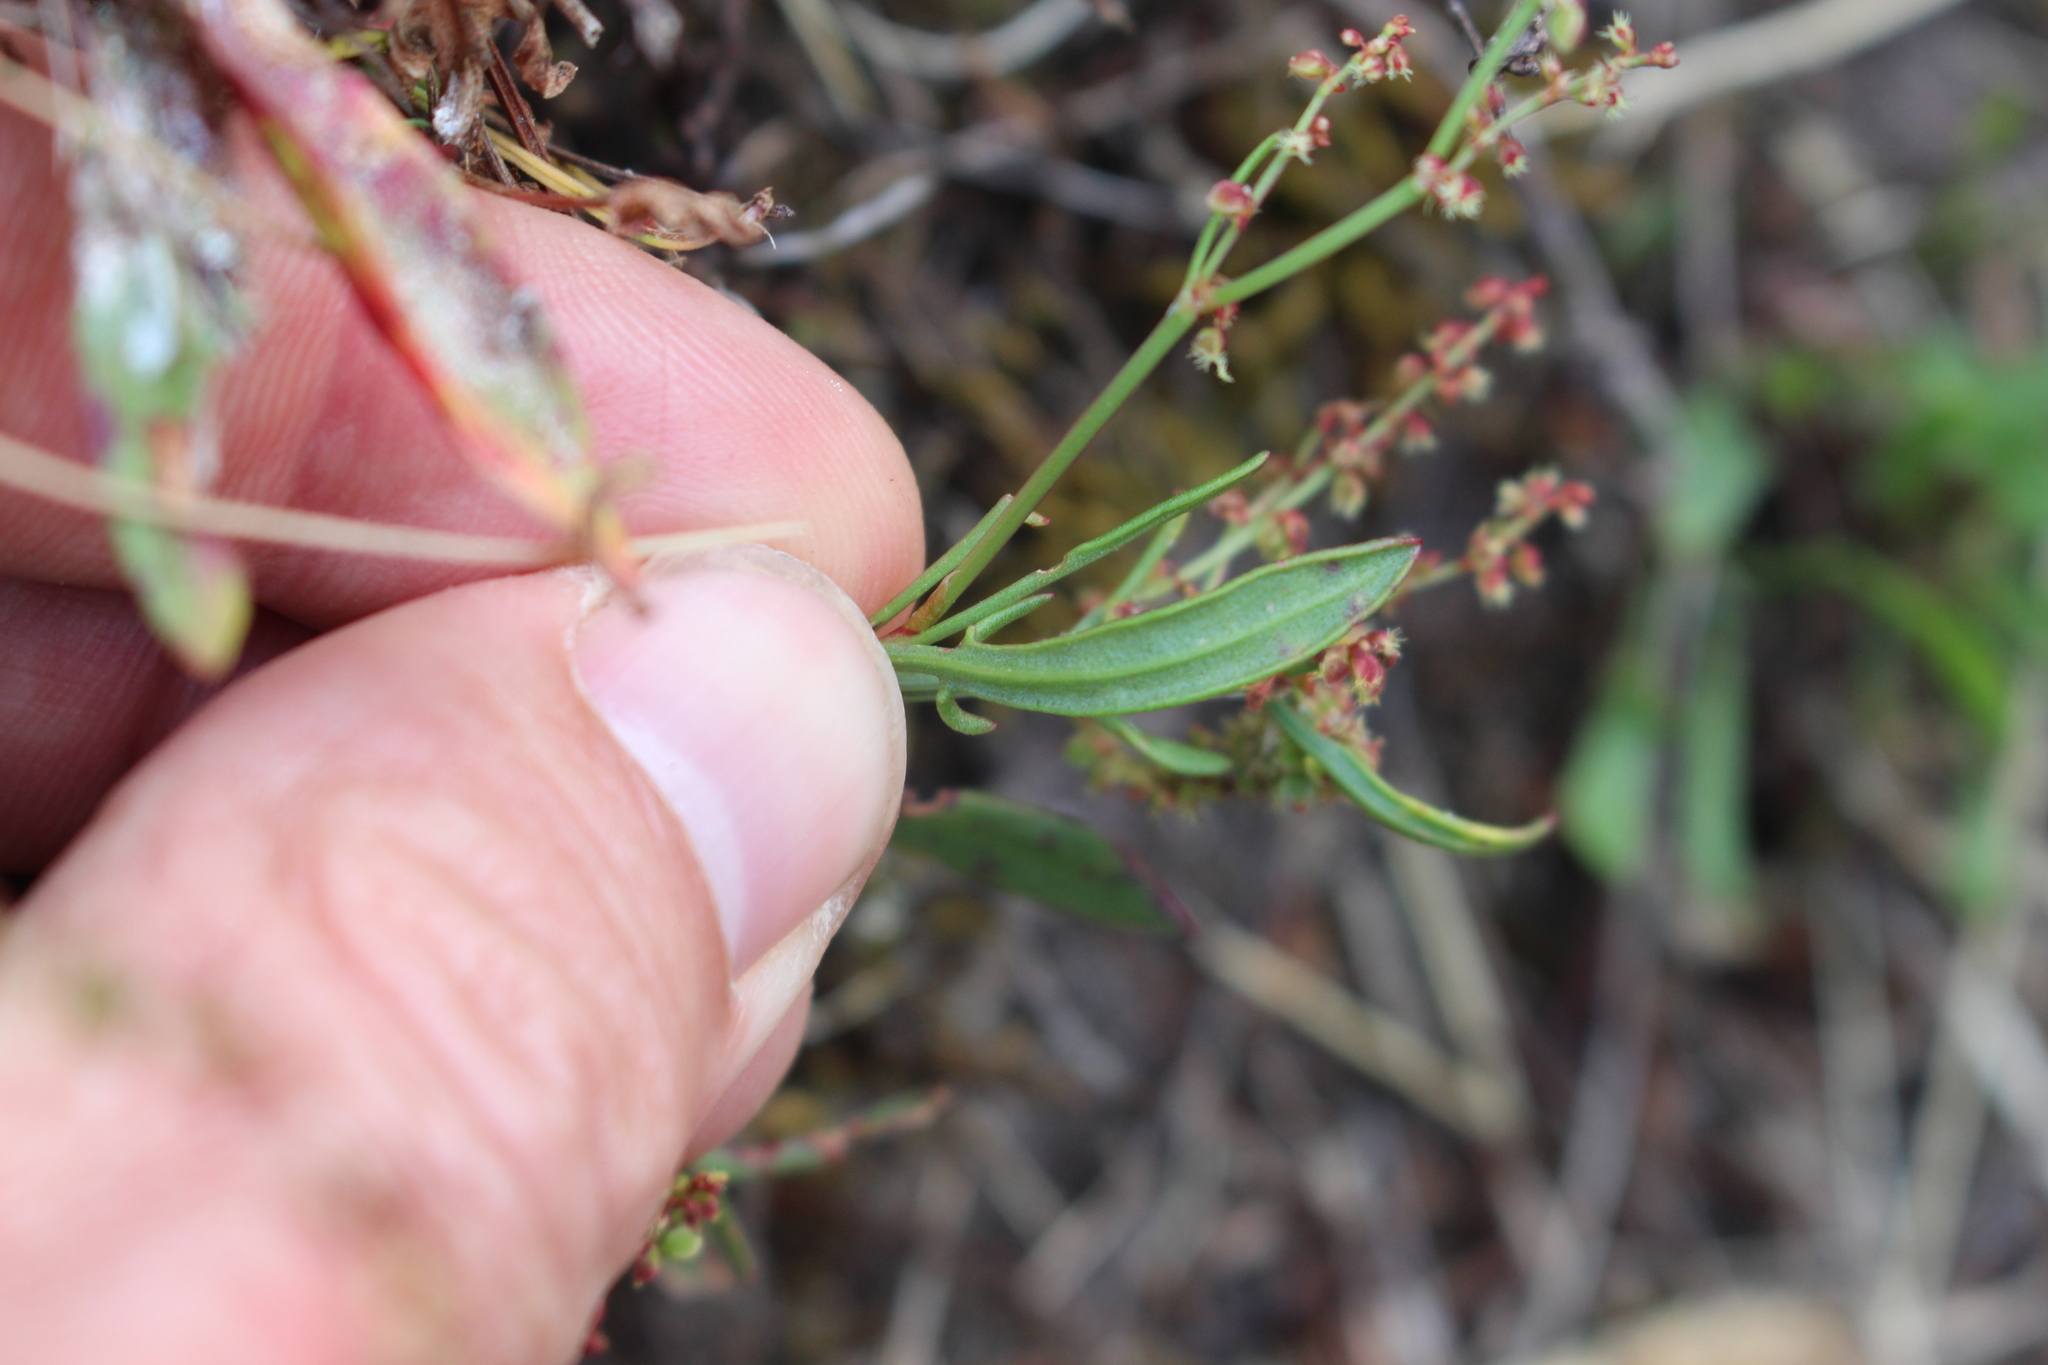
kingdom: Plantae
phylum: Tracheophyta
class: Magnoliopsida
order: Caryophyllales
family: Polygonaceae
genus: Rumex
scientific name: Rumex acetosella
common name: Common sheep sorrel
